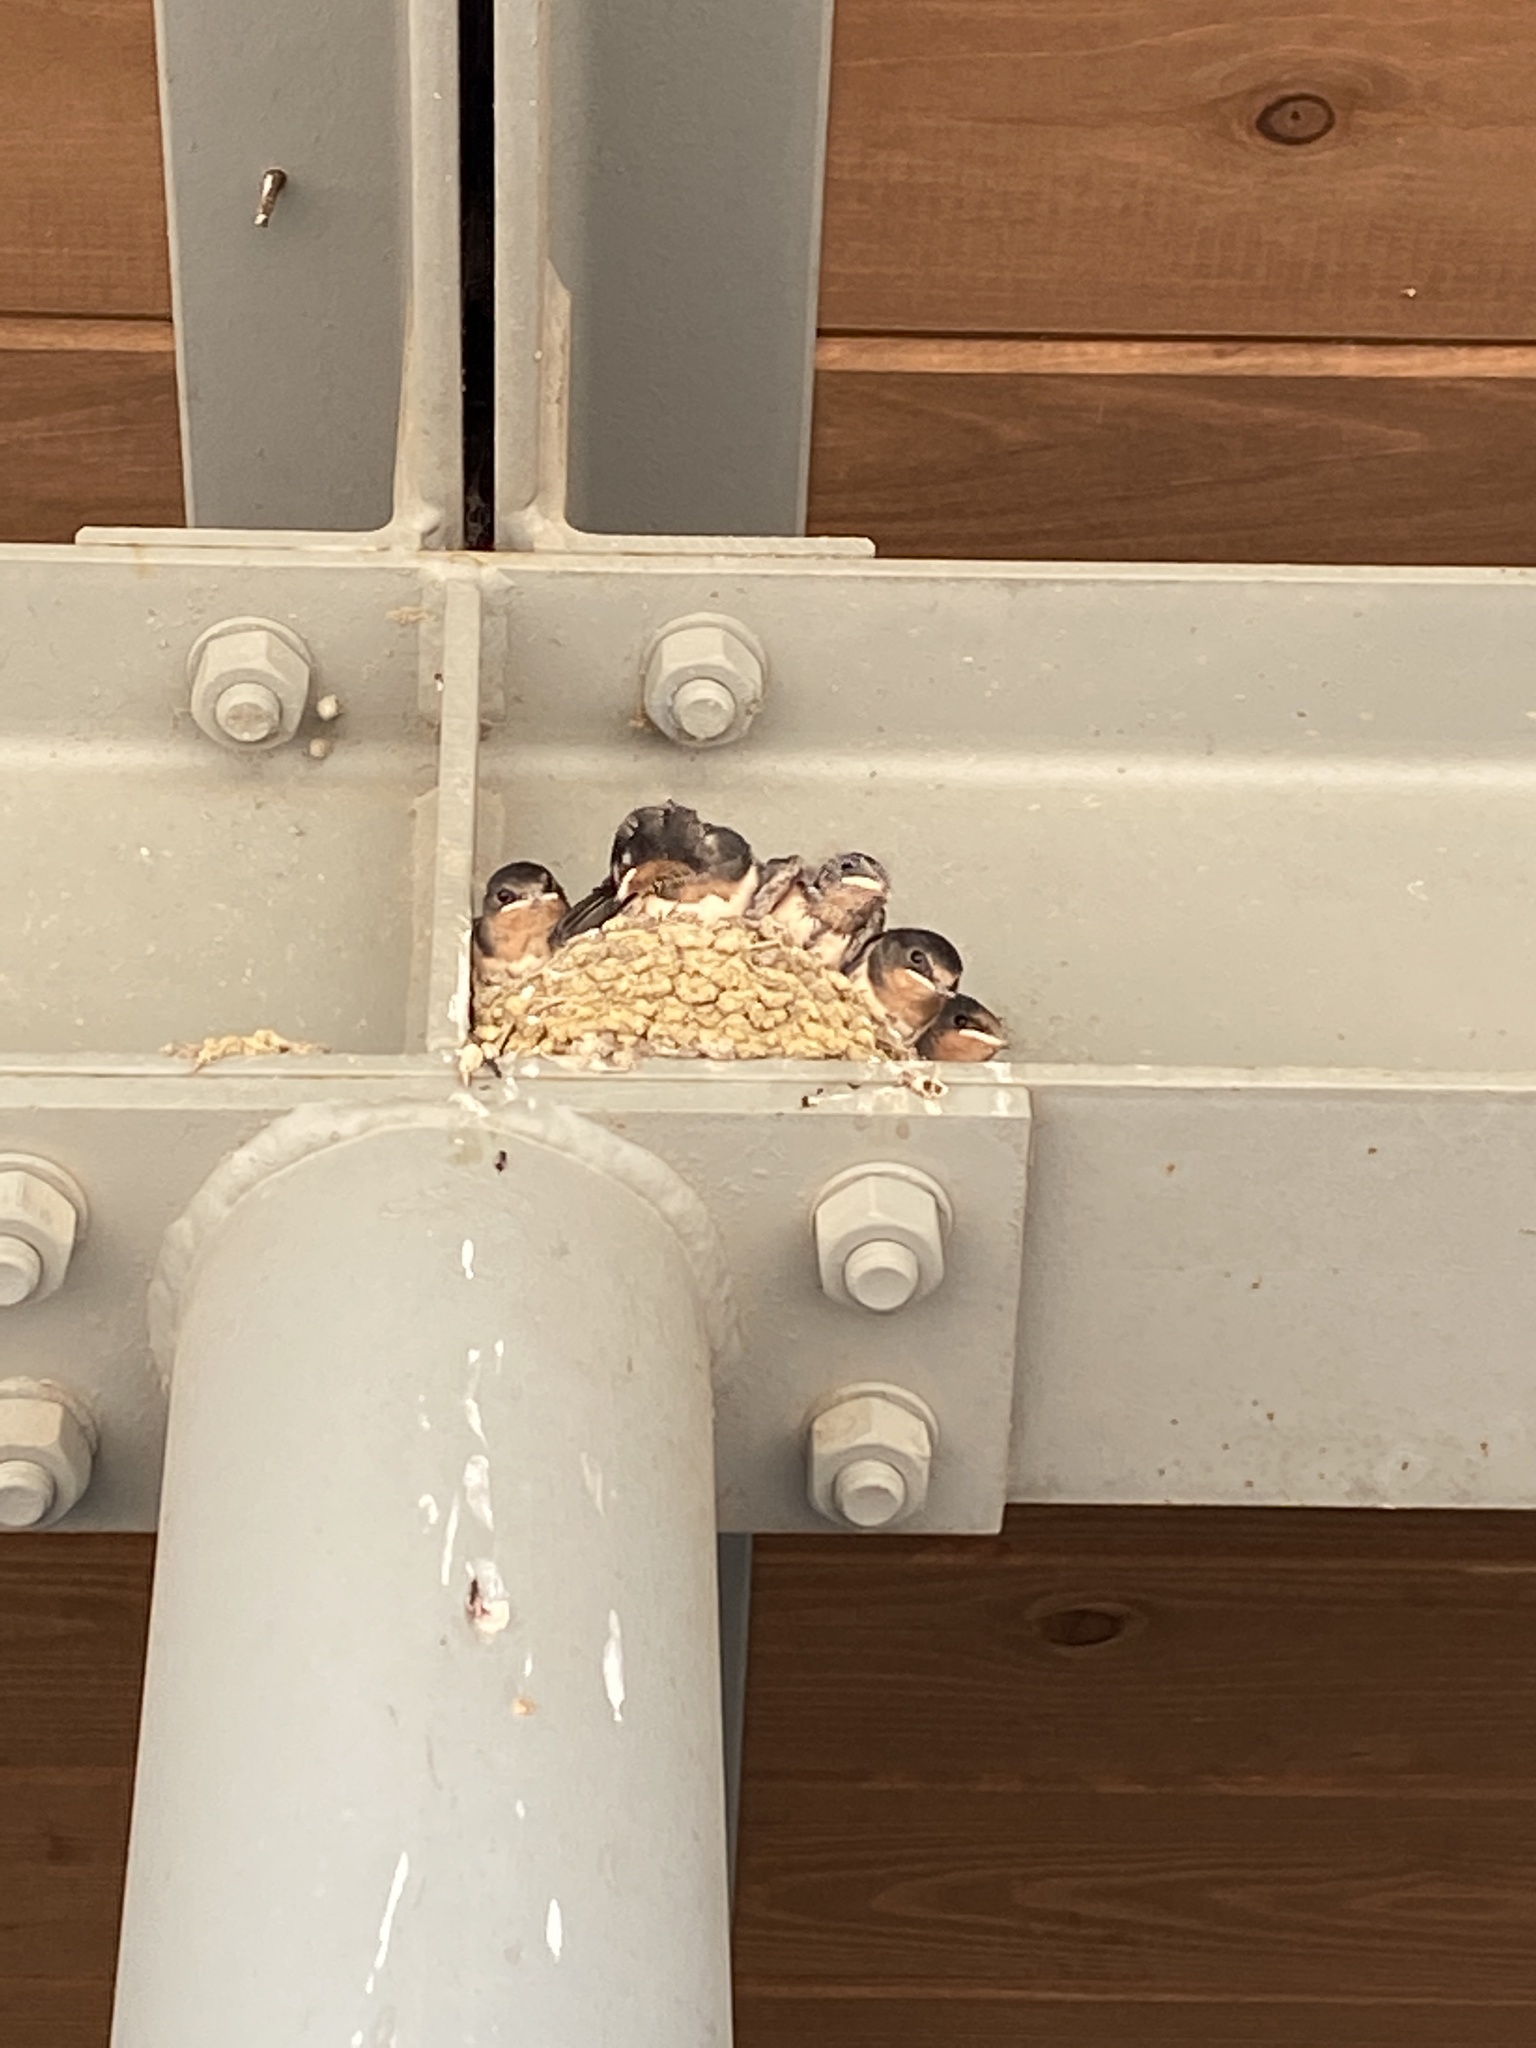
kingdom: Animalia
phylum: Chordata
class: Aves
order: Passeriformes
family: Hirundinidae
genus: Hirundo
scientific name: Hirundo rustica
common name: Barn swallow
